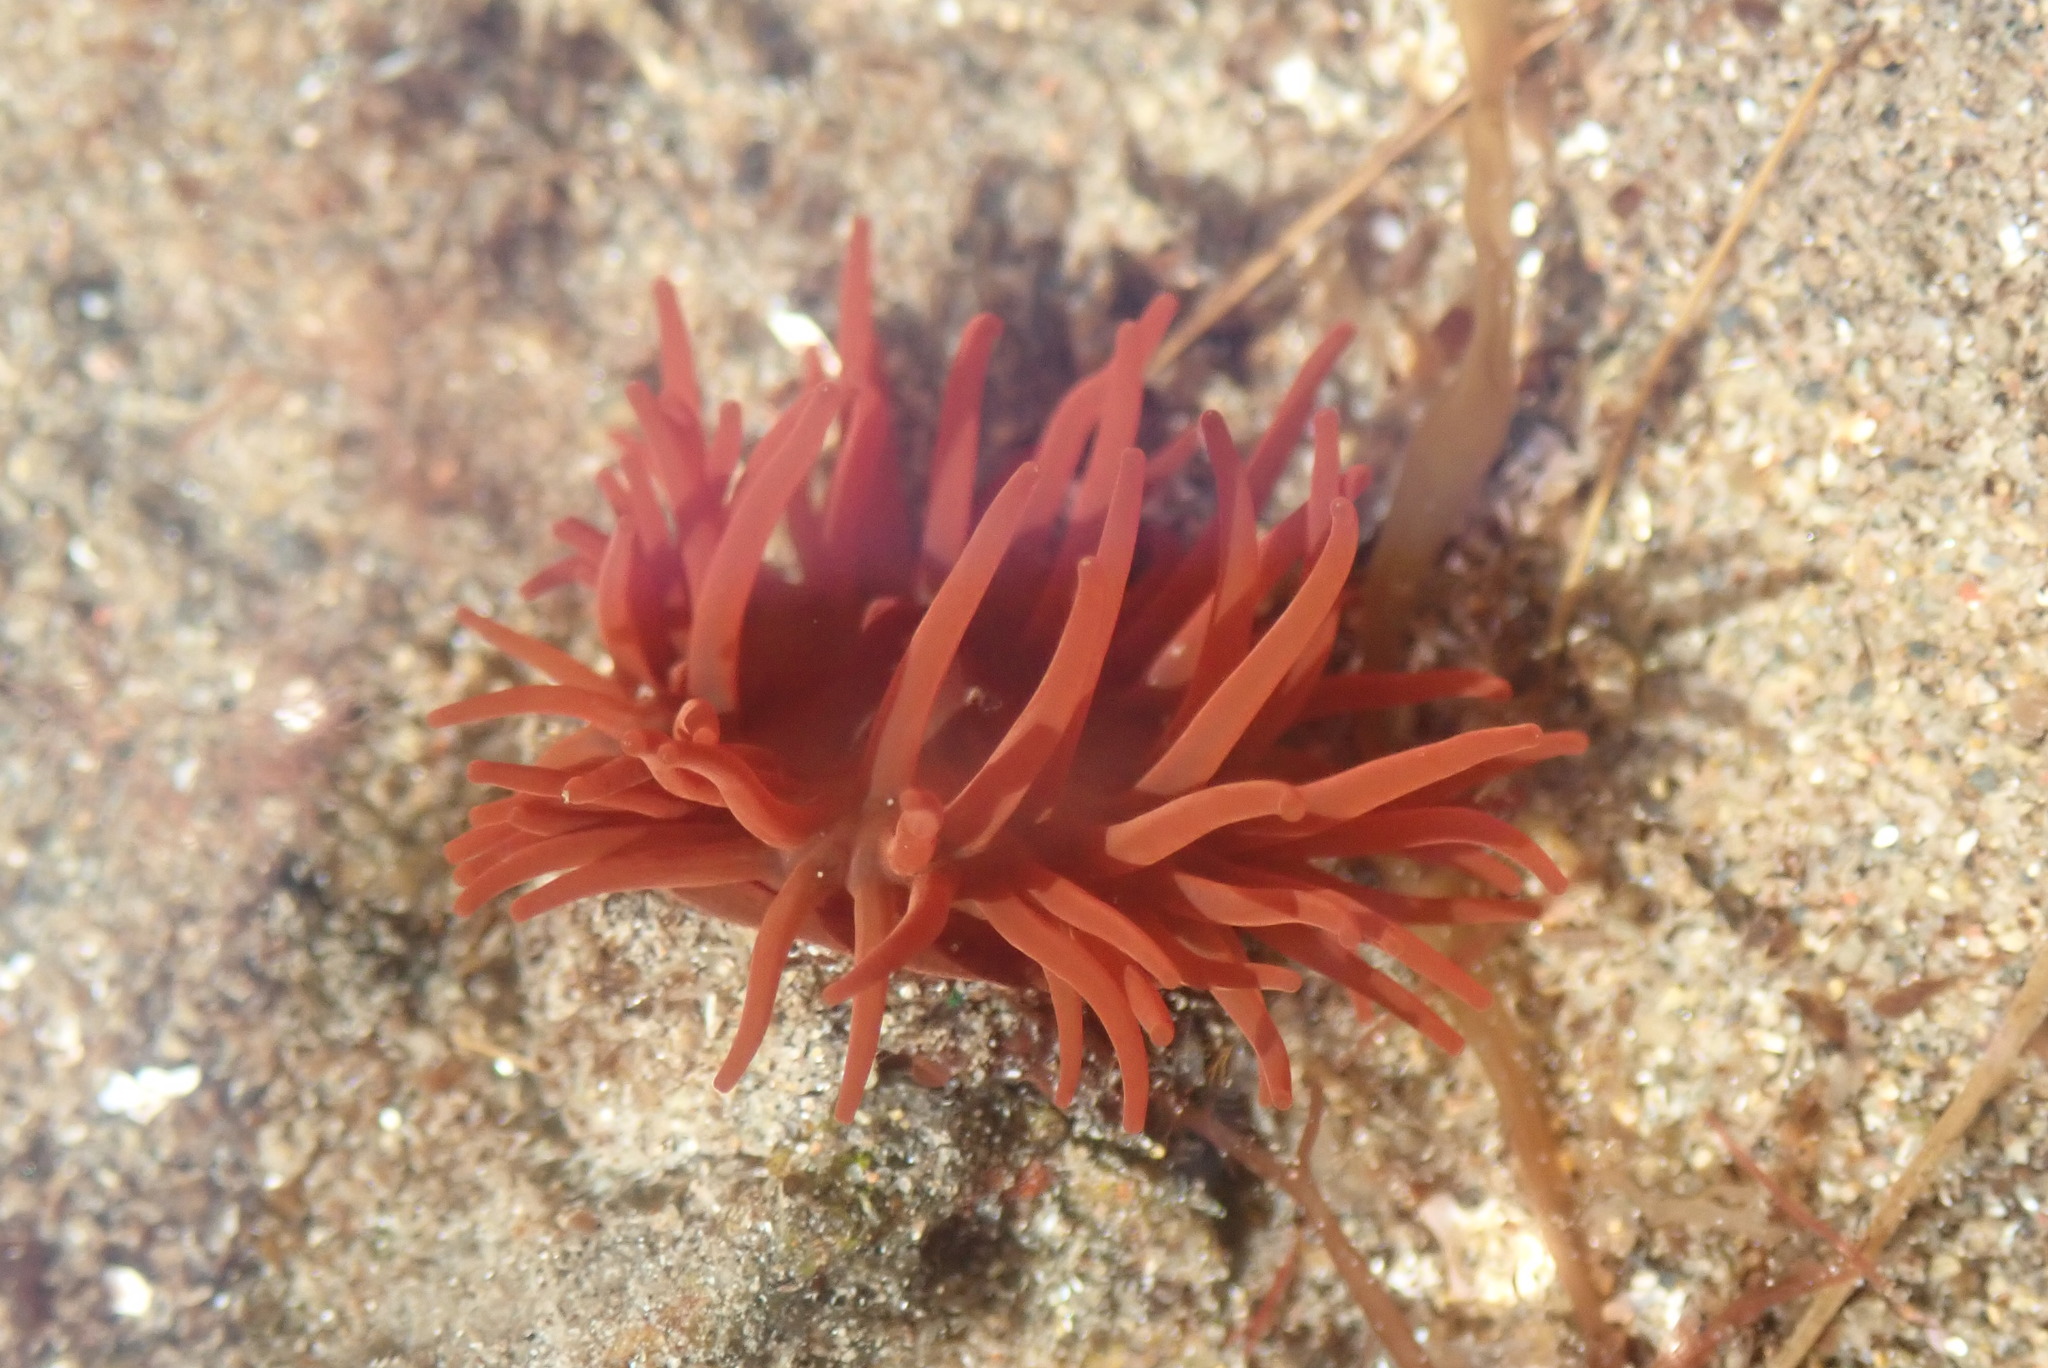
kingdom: Animalia
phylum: Cnidaria
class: Anthozoa
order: Actiniaria
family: Actiniidae
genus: Actinia
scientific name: Actinia equina
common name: Beadlet anemone
